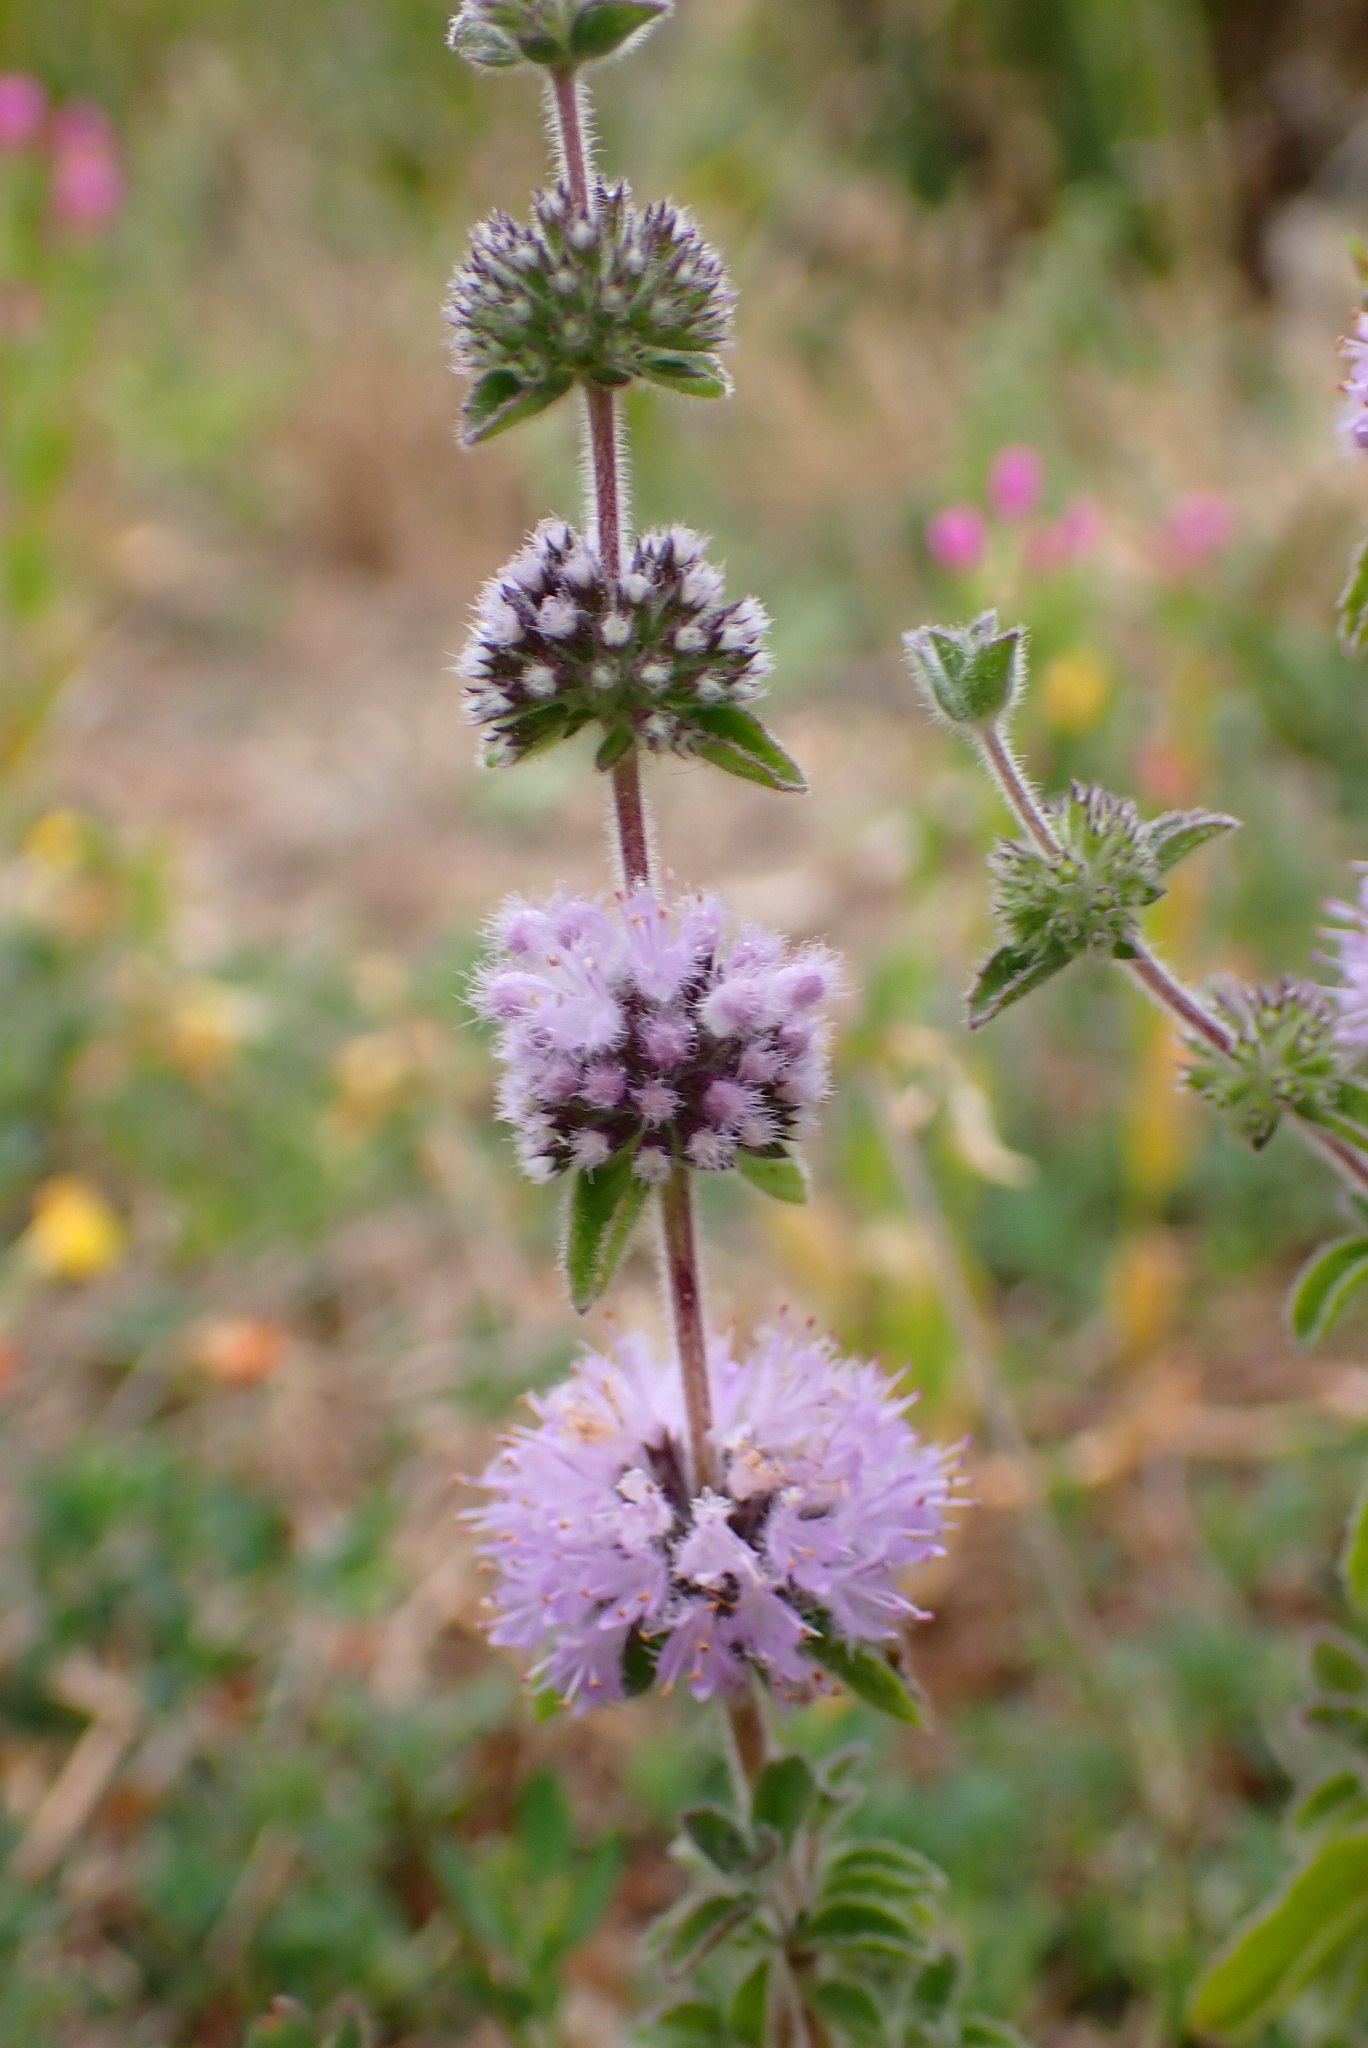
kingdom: Plantae
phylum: Tracheophyta
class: Magnoliopsida
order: Lamiales
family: Lamiaceae
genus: Mentha
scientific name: Mentha pulegium
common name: Pennyroyal
